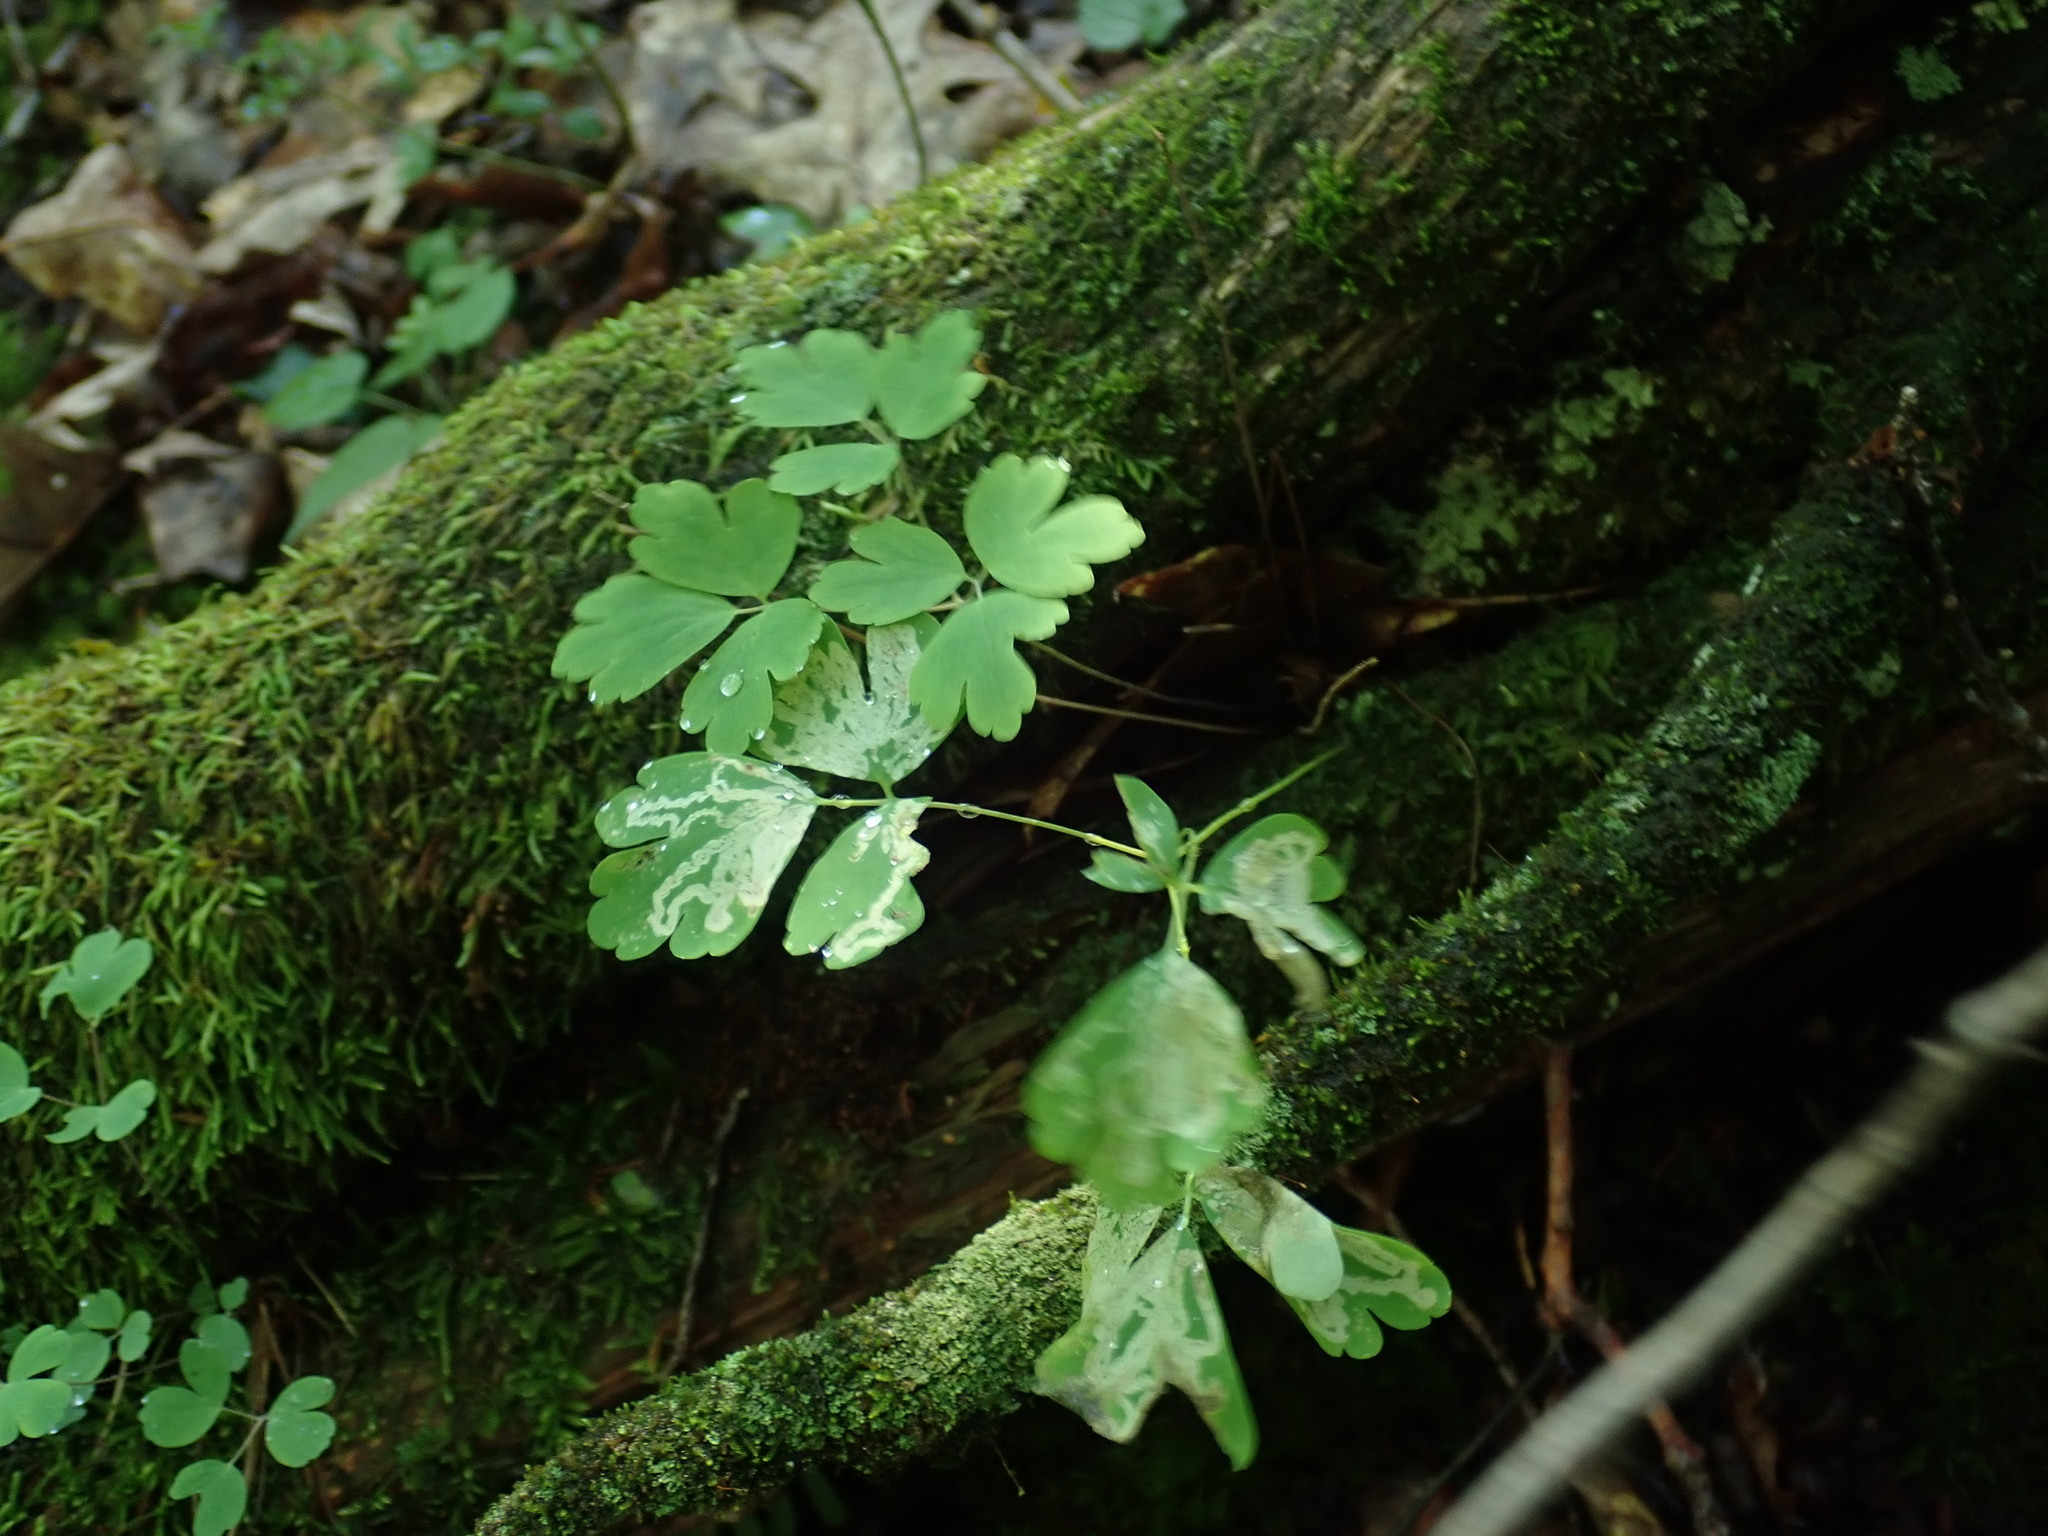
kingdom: Plantae
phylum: Tracheophyta
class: Magnoliopsida
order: Ranunculales
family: Ranunculaceae
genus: Aquilegia
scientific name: Aquilegia canadensis
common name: American columbine
